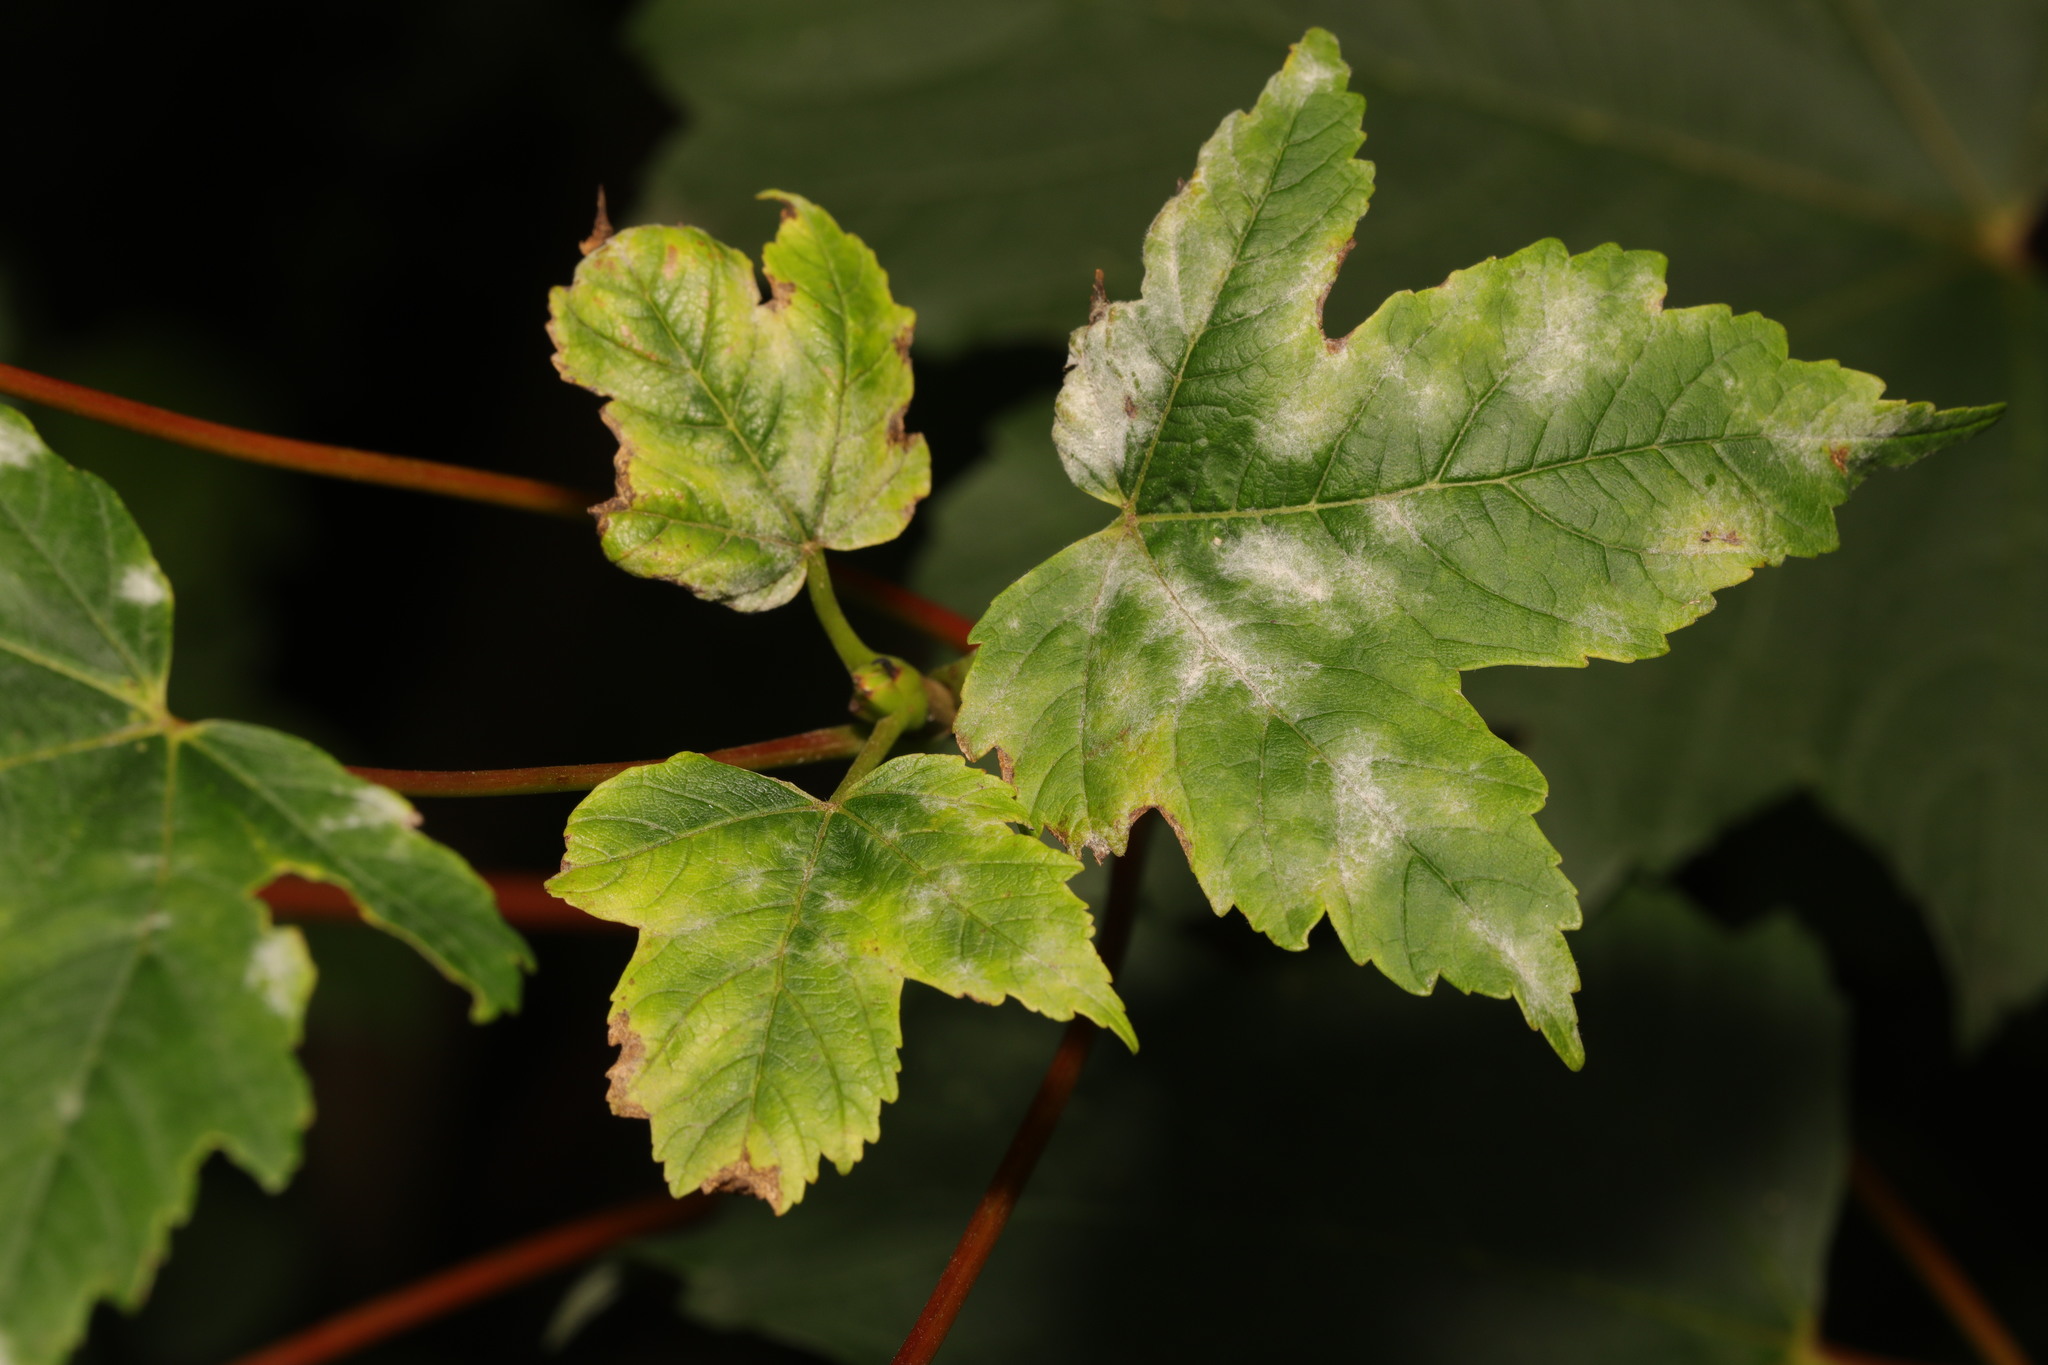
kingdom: Fungi
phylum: Ascomycota
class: Leotiomycetes
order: Helotiales
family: Erysiphaceae
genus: Sawadaea
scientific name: Sawadaea bicornis
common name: Maple mildew
